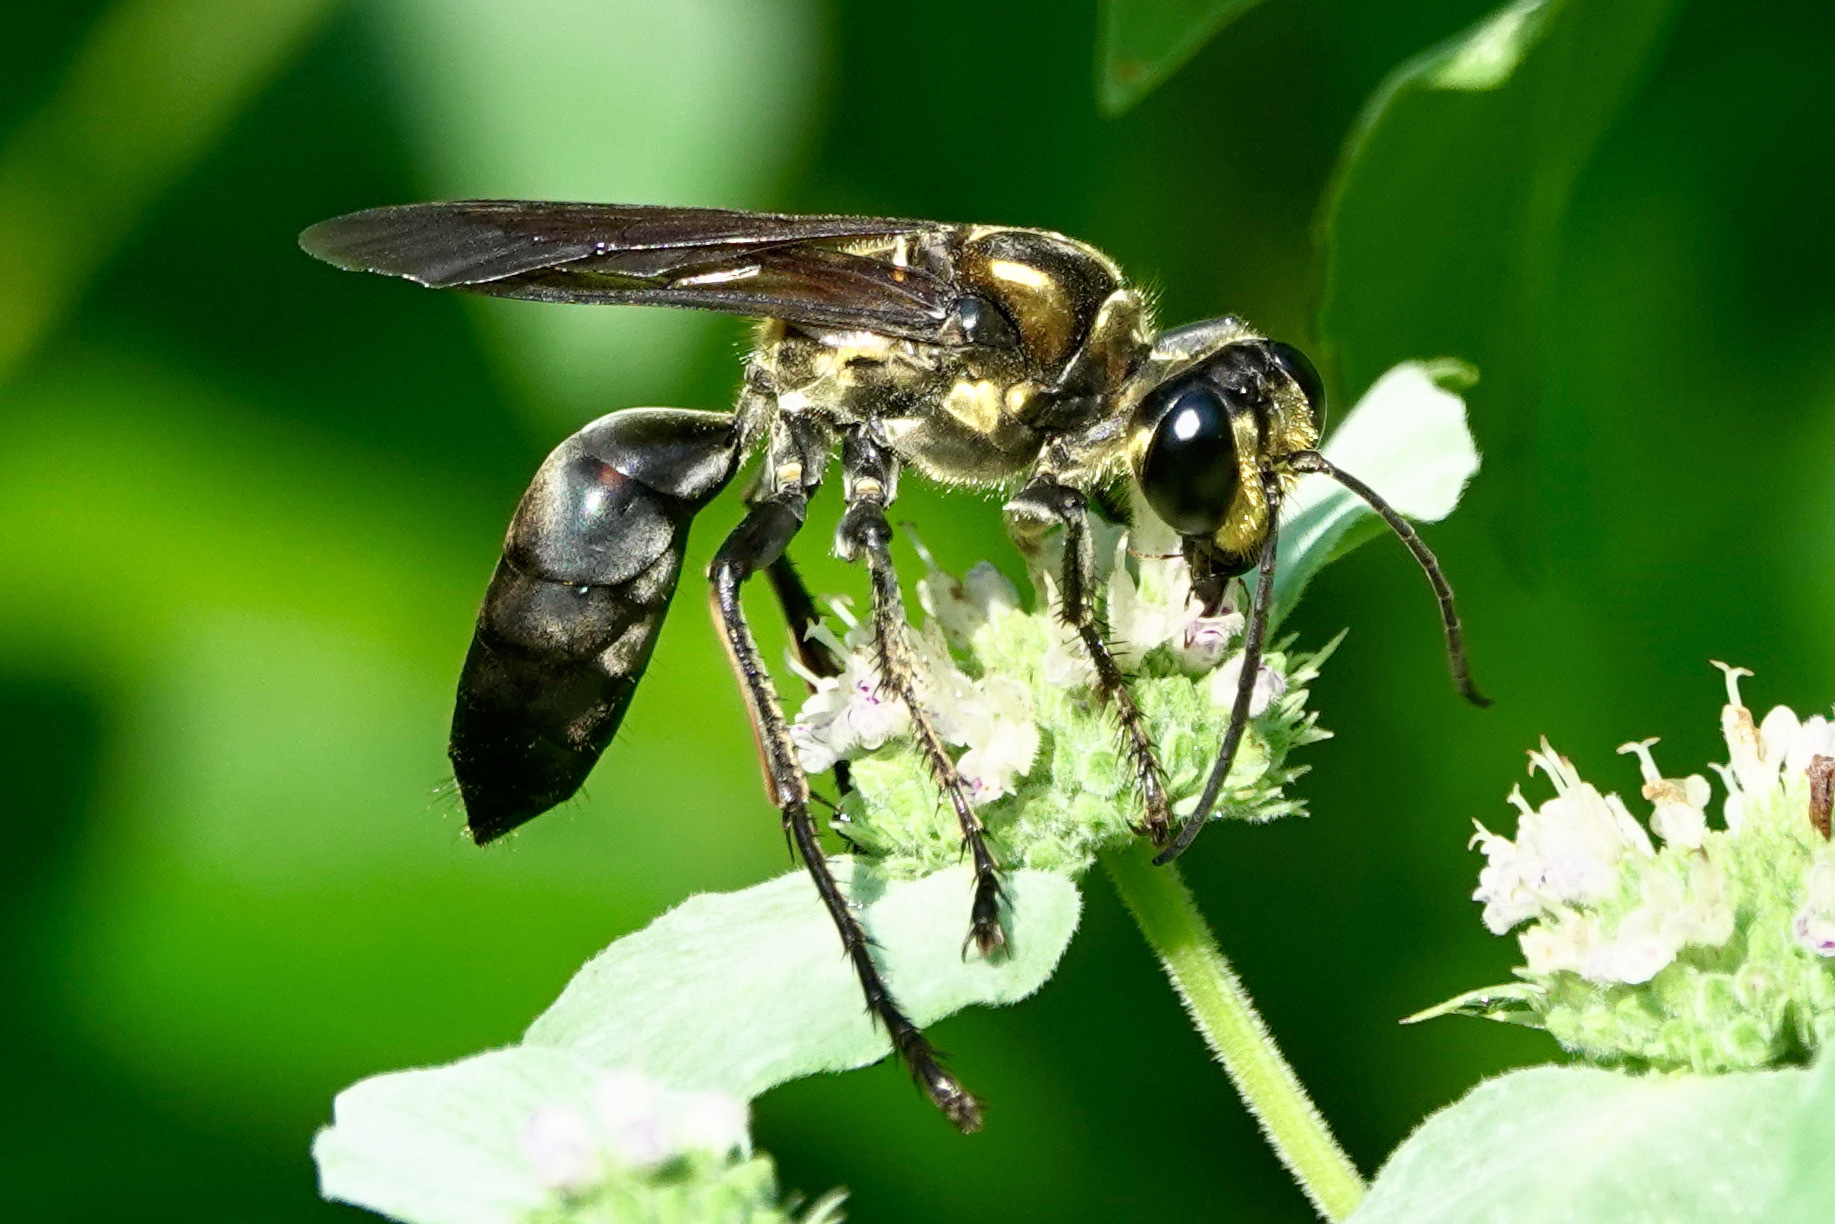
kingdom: Animalia
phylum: Arthropoda
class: Insecta
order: Hymenoptera
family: Sphecidae
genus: Sphex
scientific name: Sphex habenus
